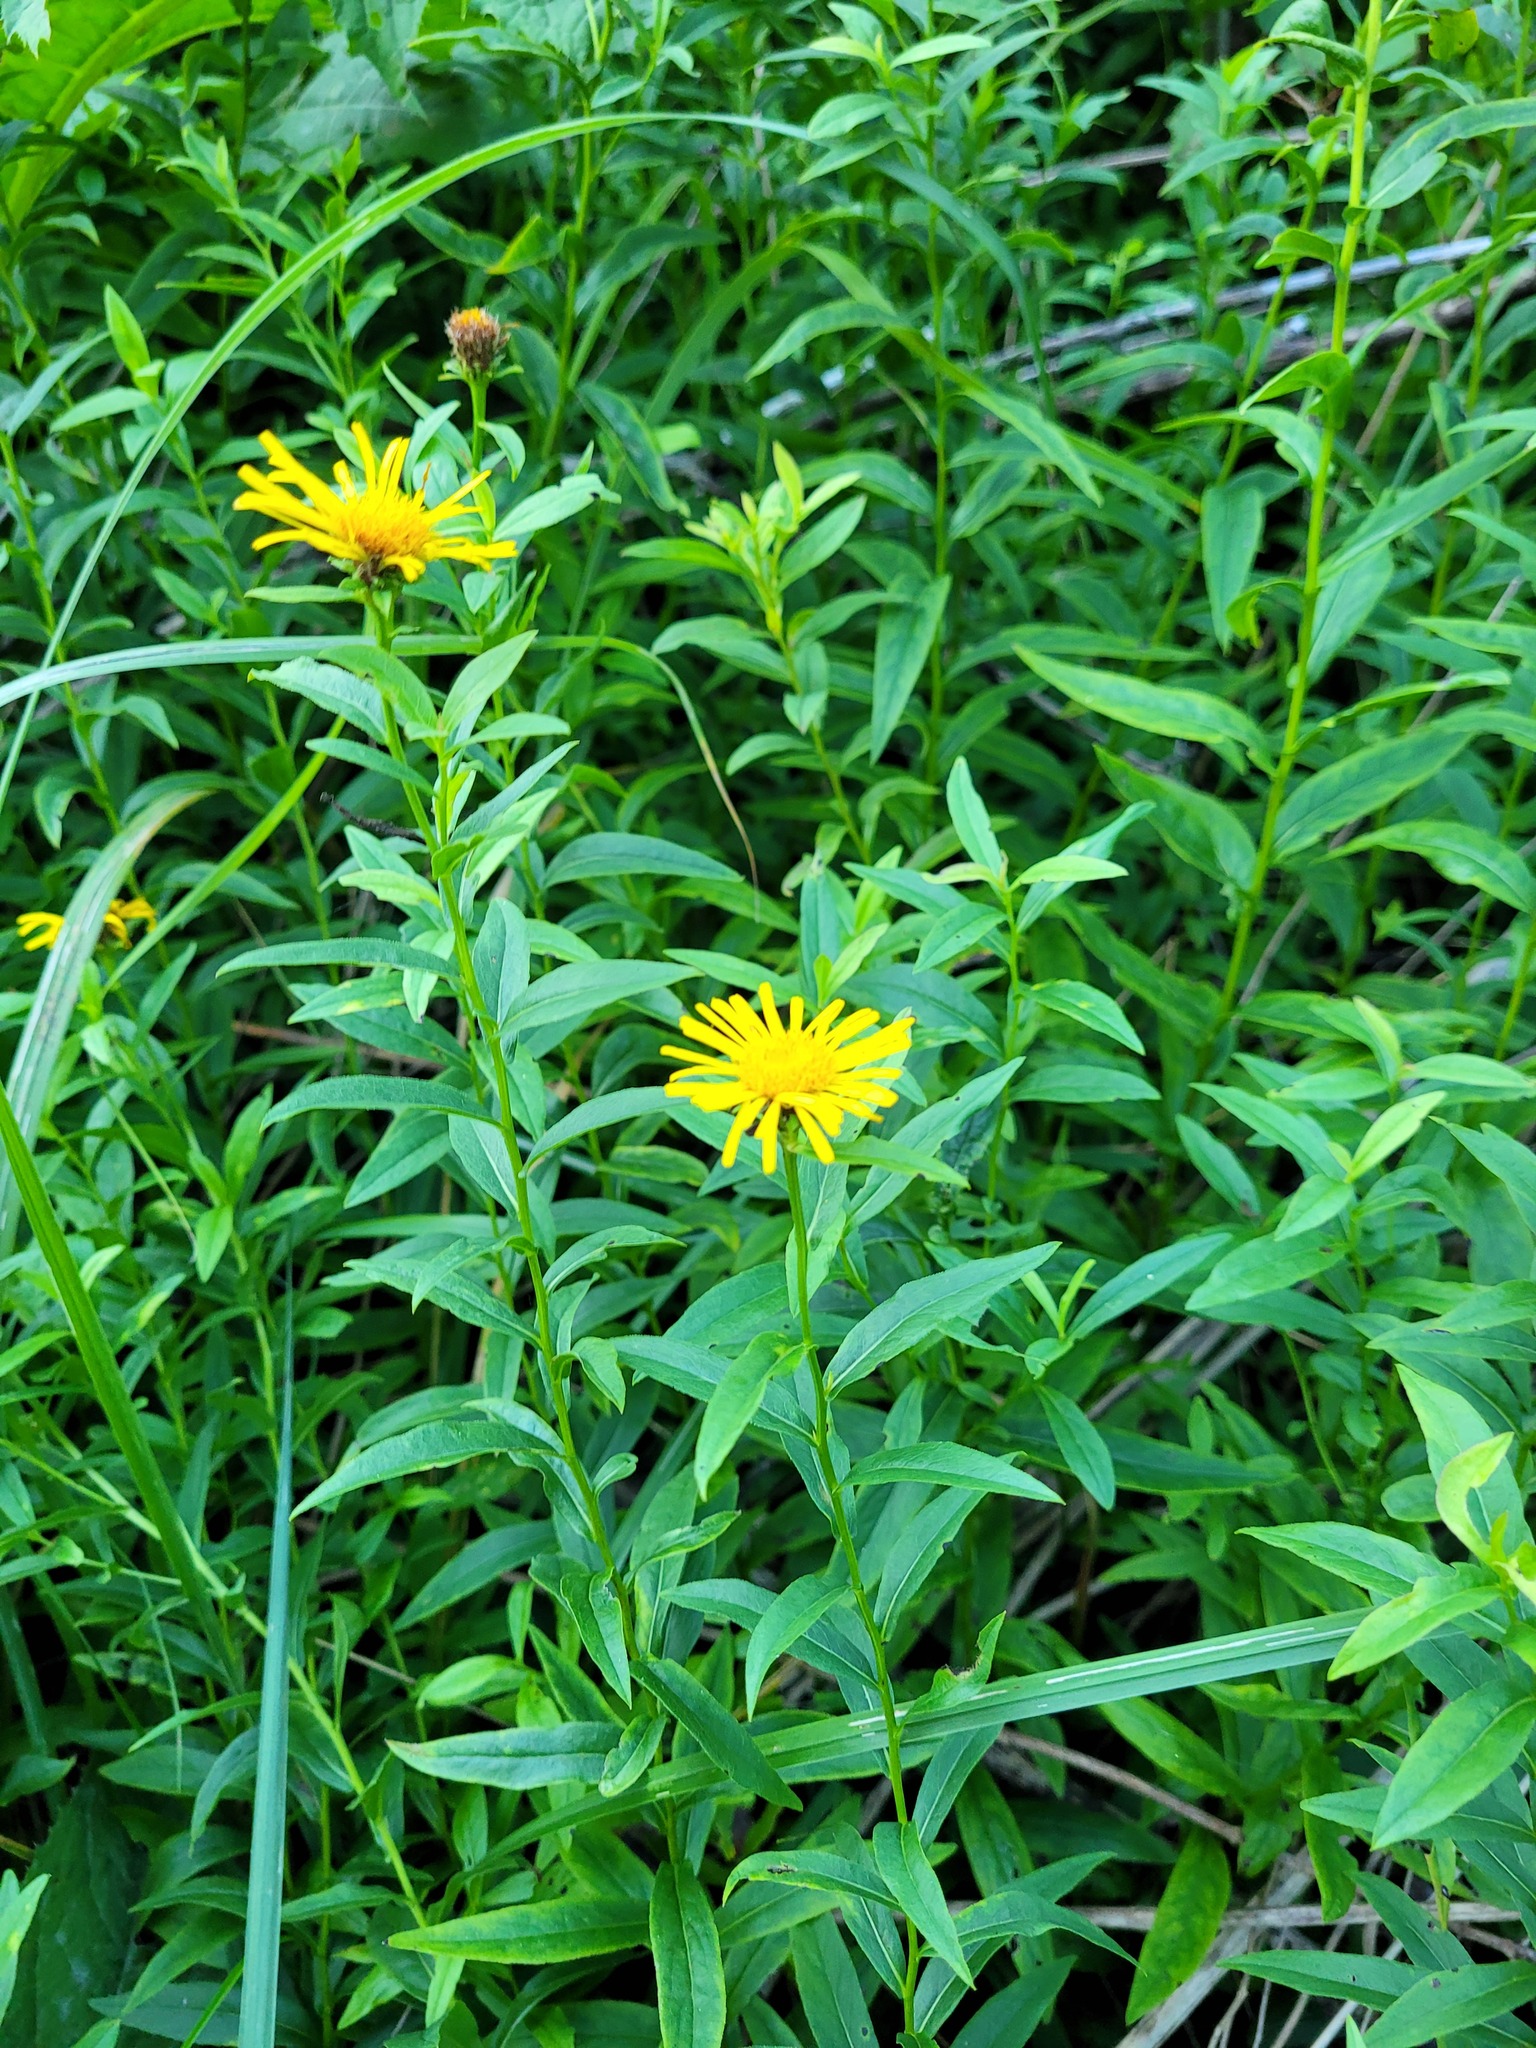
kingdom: Plantae
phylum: Tracheophyta
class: Magnoliopsida
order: Asterales
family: Asteraceae
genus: Pentanema
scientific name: Pentanema salicinum
